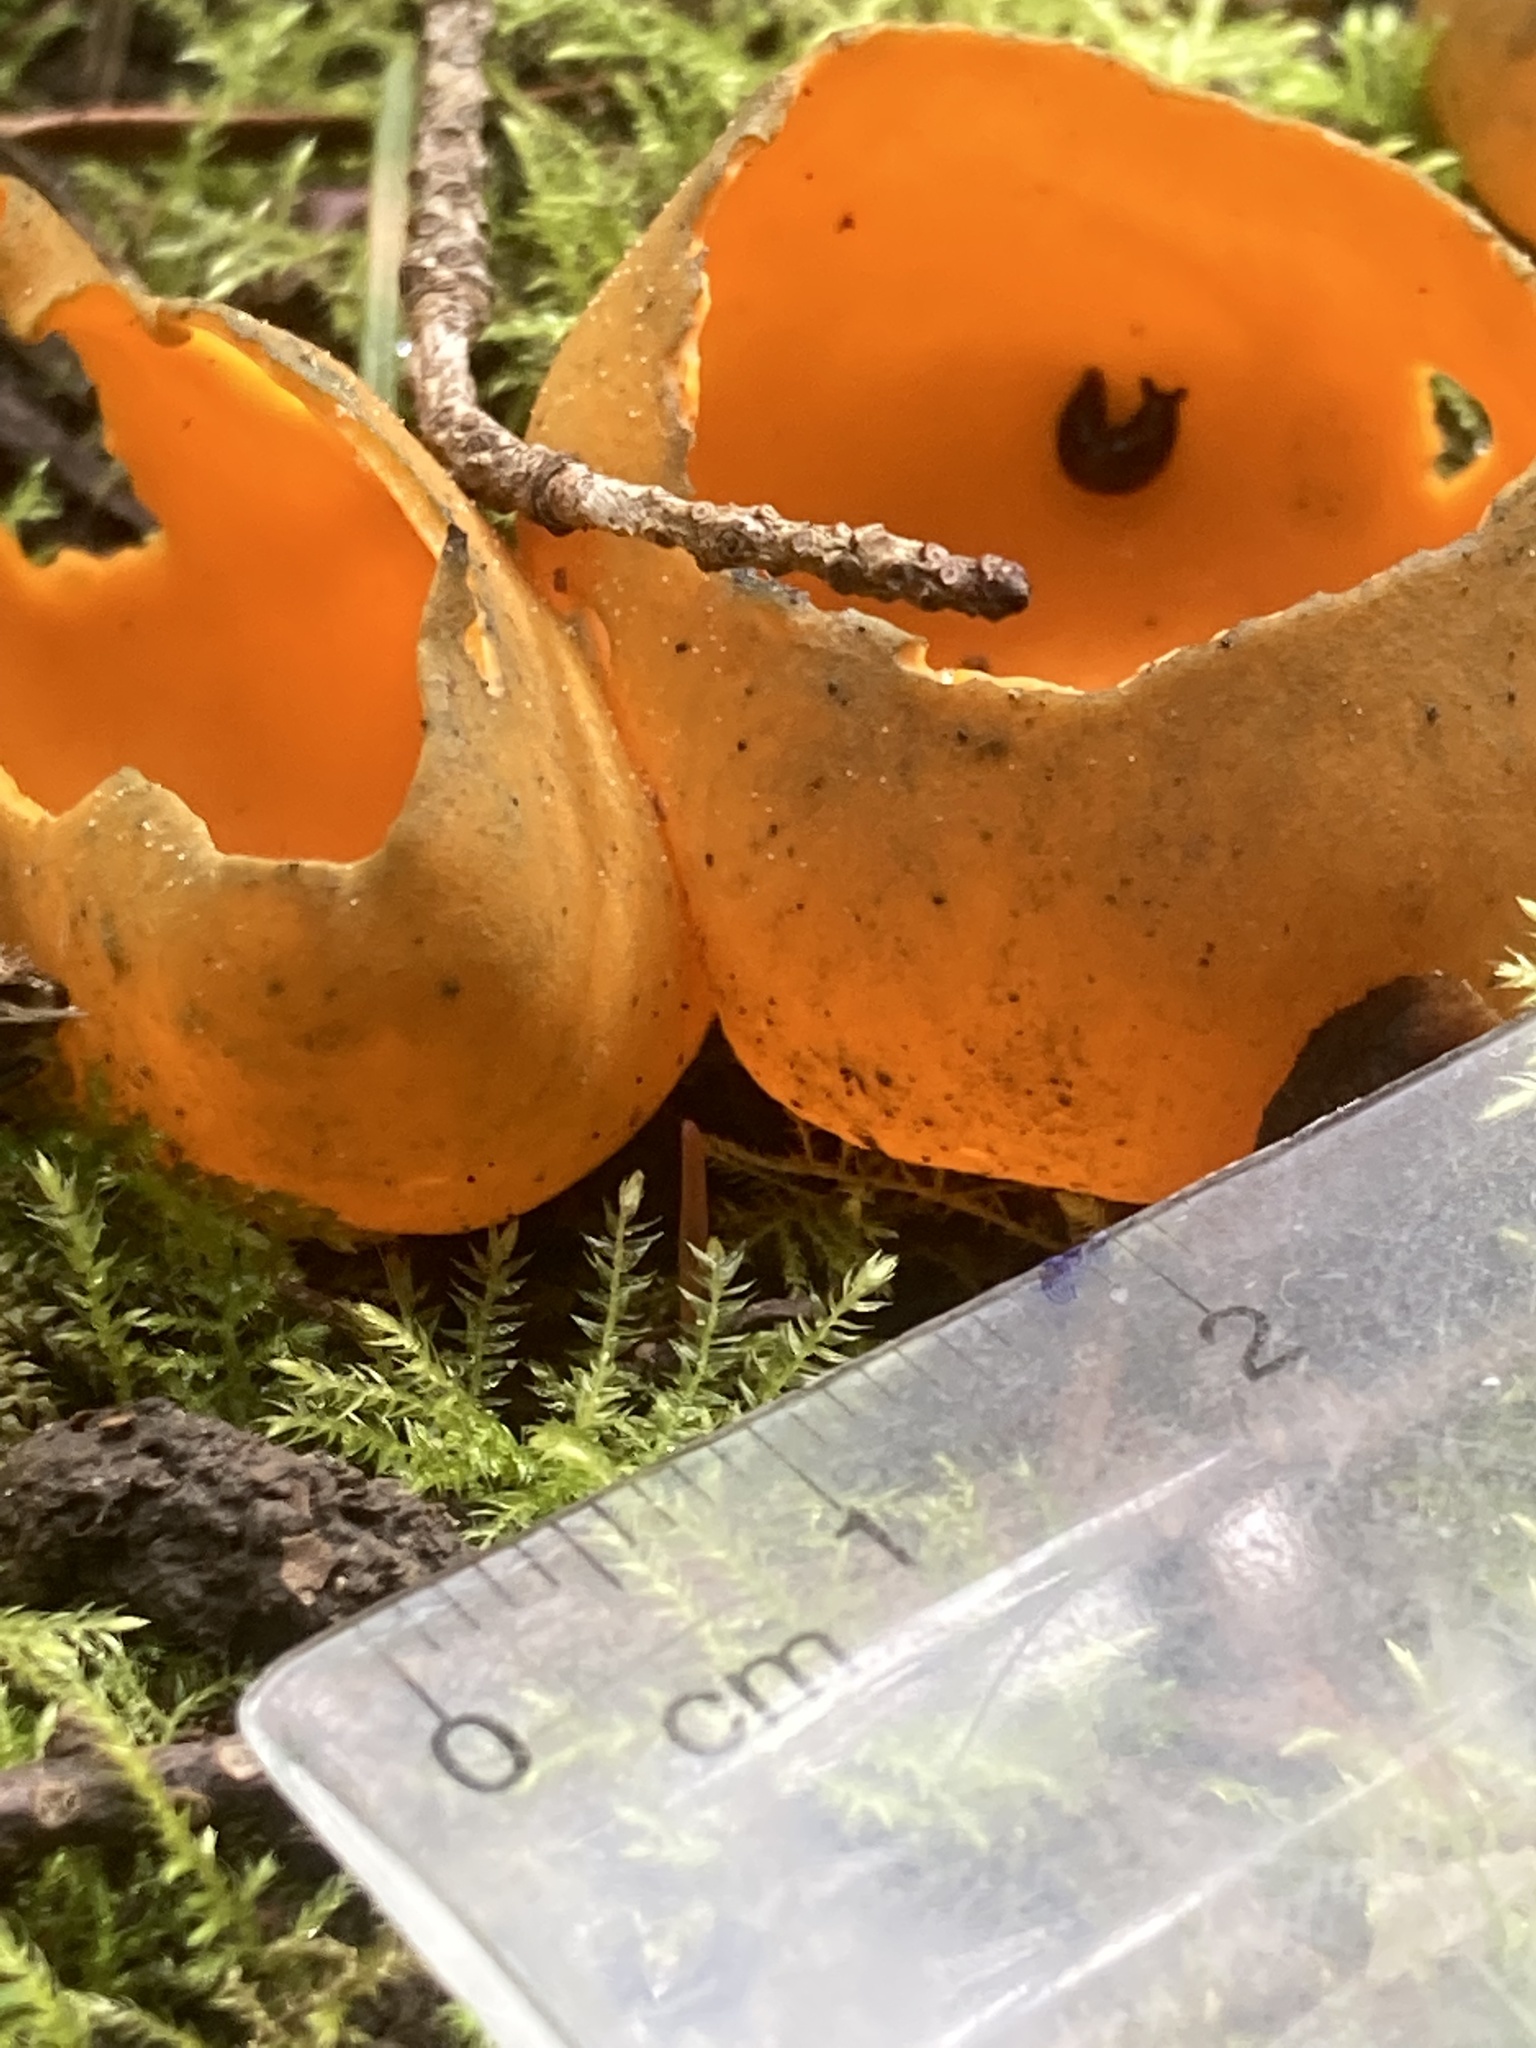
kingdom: Fungi
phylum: Ascomycota
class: Pezizomycetes
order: Pezizales
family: Caloscyphaceae
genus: Caloscypha
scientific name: Caloscypha fulgens
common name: Golden cup
